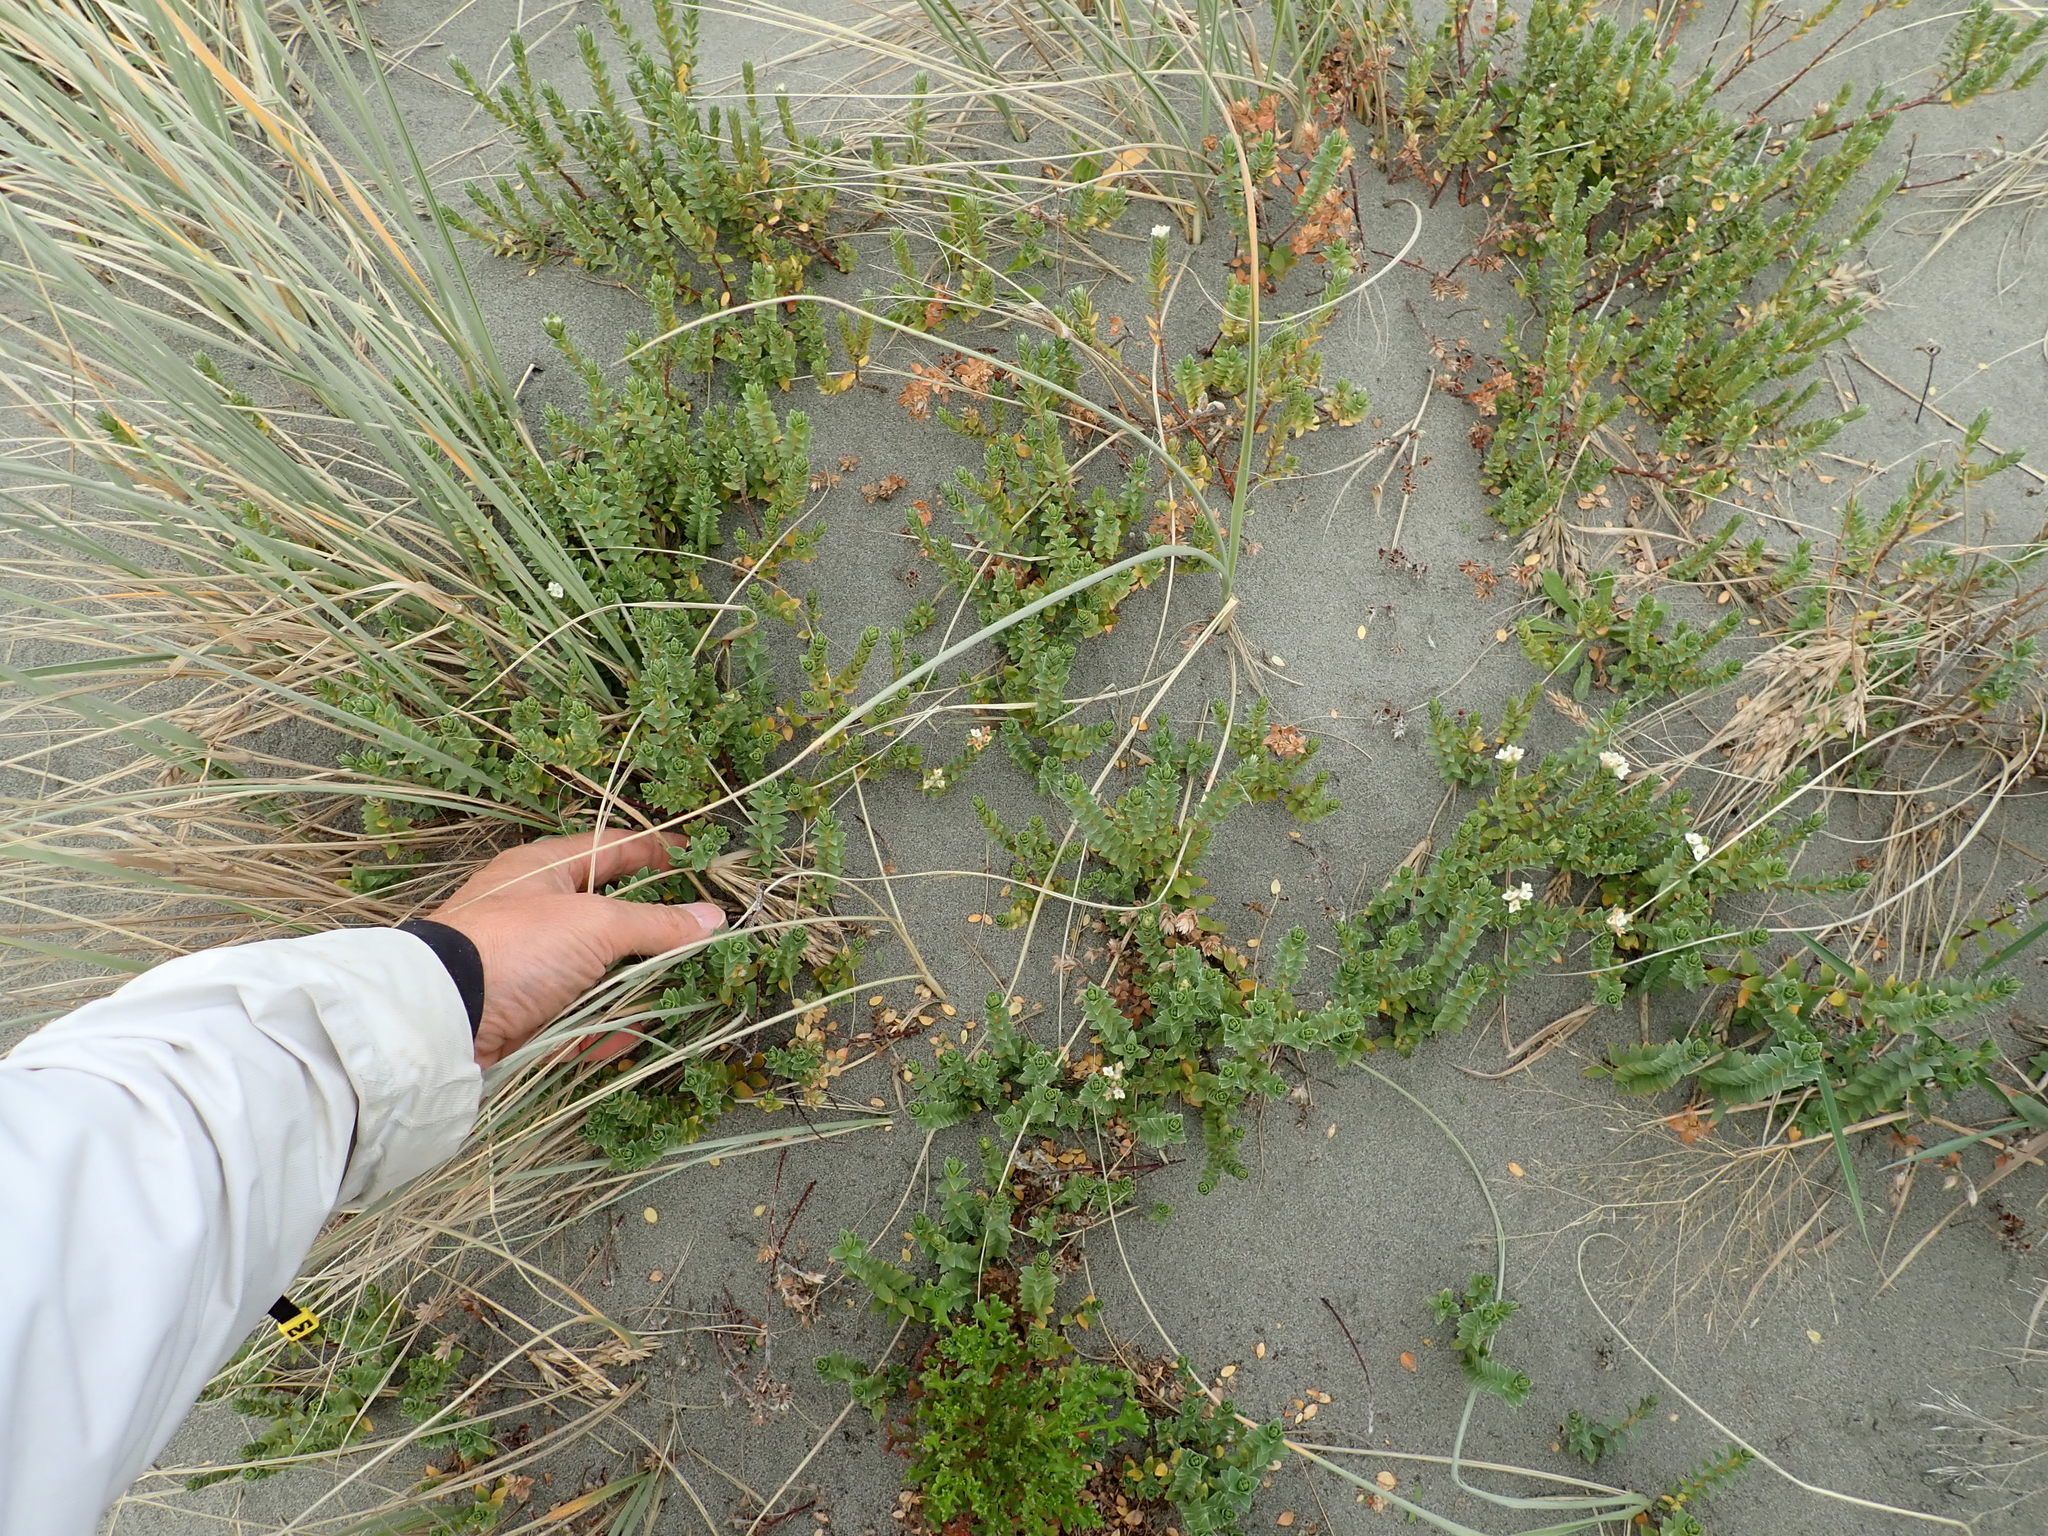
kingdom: Plantae
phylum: Tracheophyta
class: Magnoliopsida
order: Malvales
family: Thymelaeaceae
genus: Pimelea
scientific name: Pimelea villosa
